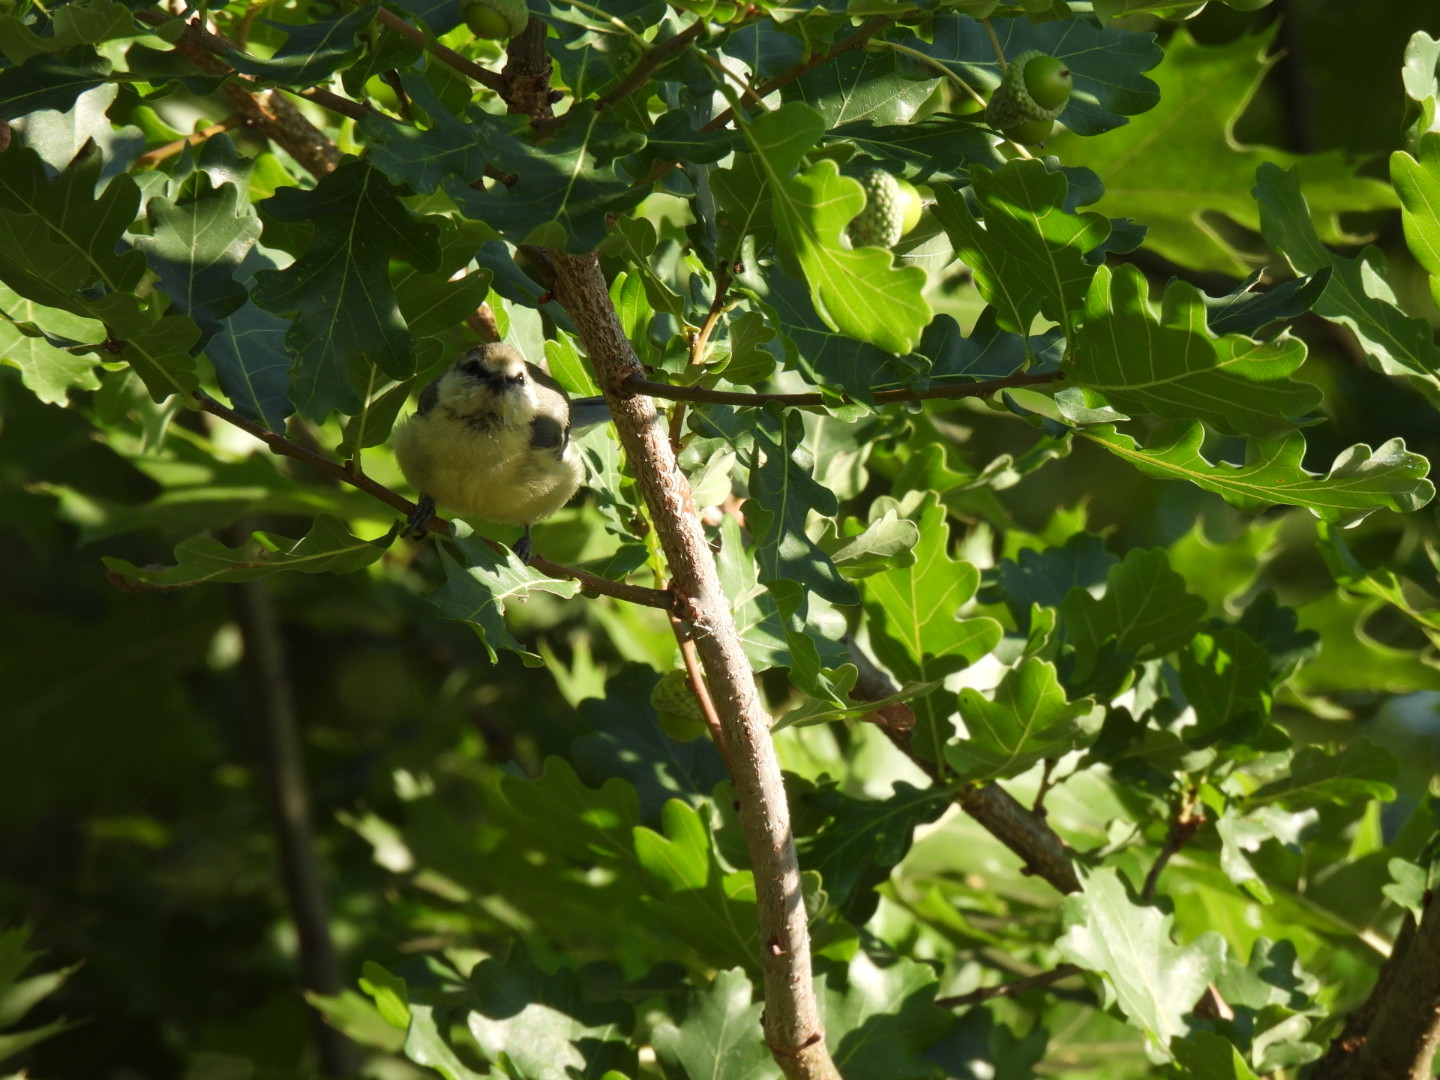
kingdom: Animalia
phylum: Chordata
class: Aves
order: Passeriformes
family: Paridae
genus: Cyanistes
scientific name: Cyanistes caeruleus
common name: Eurasian blue tit
